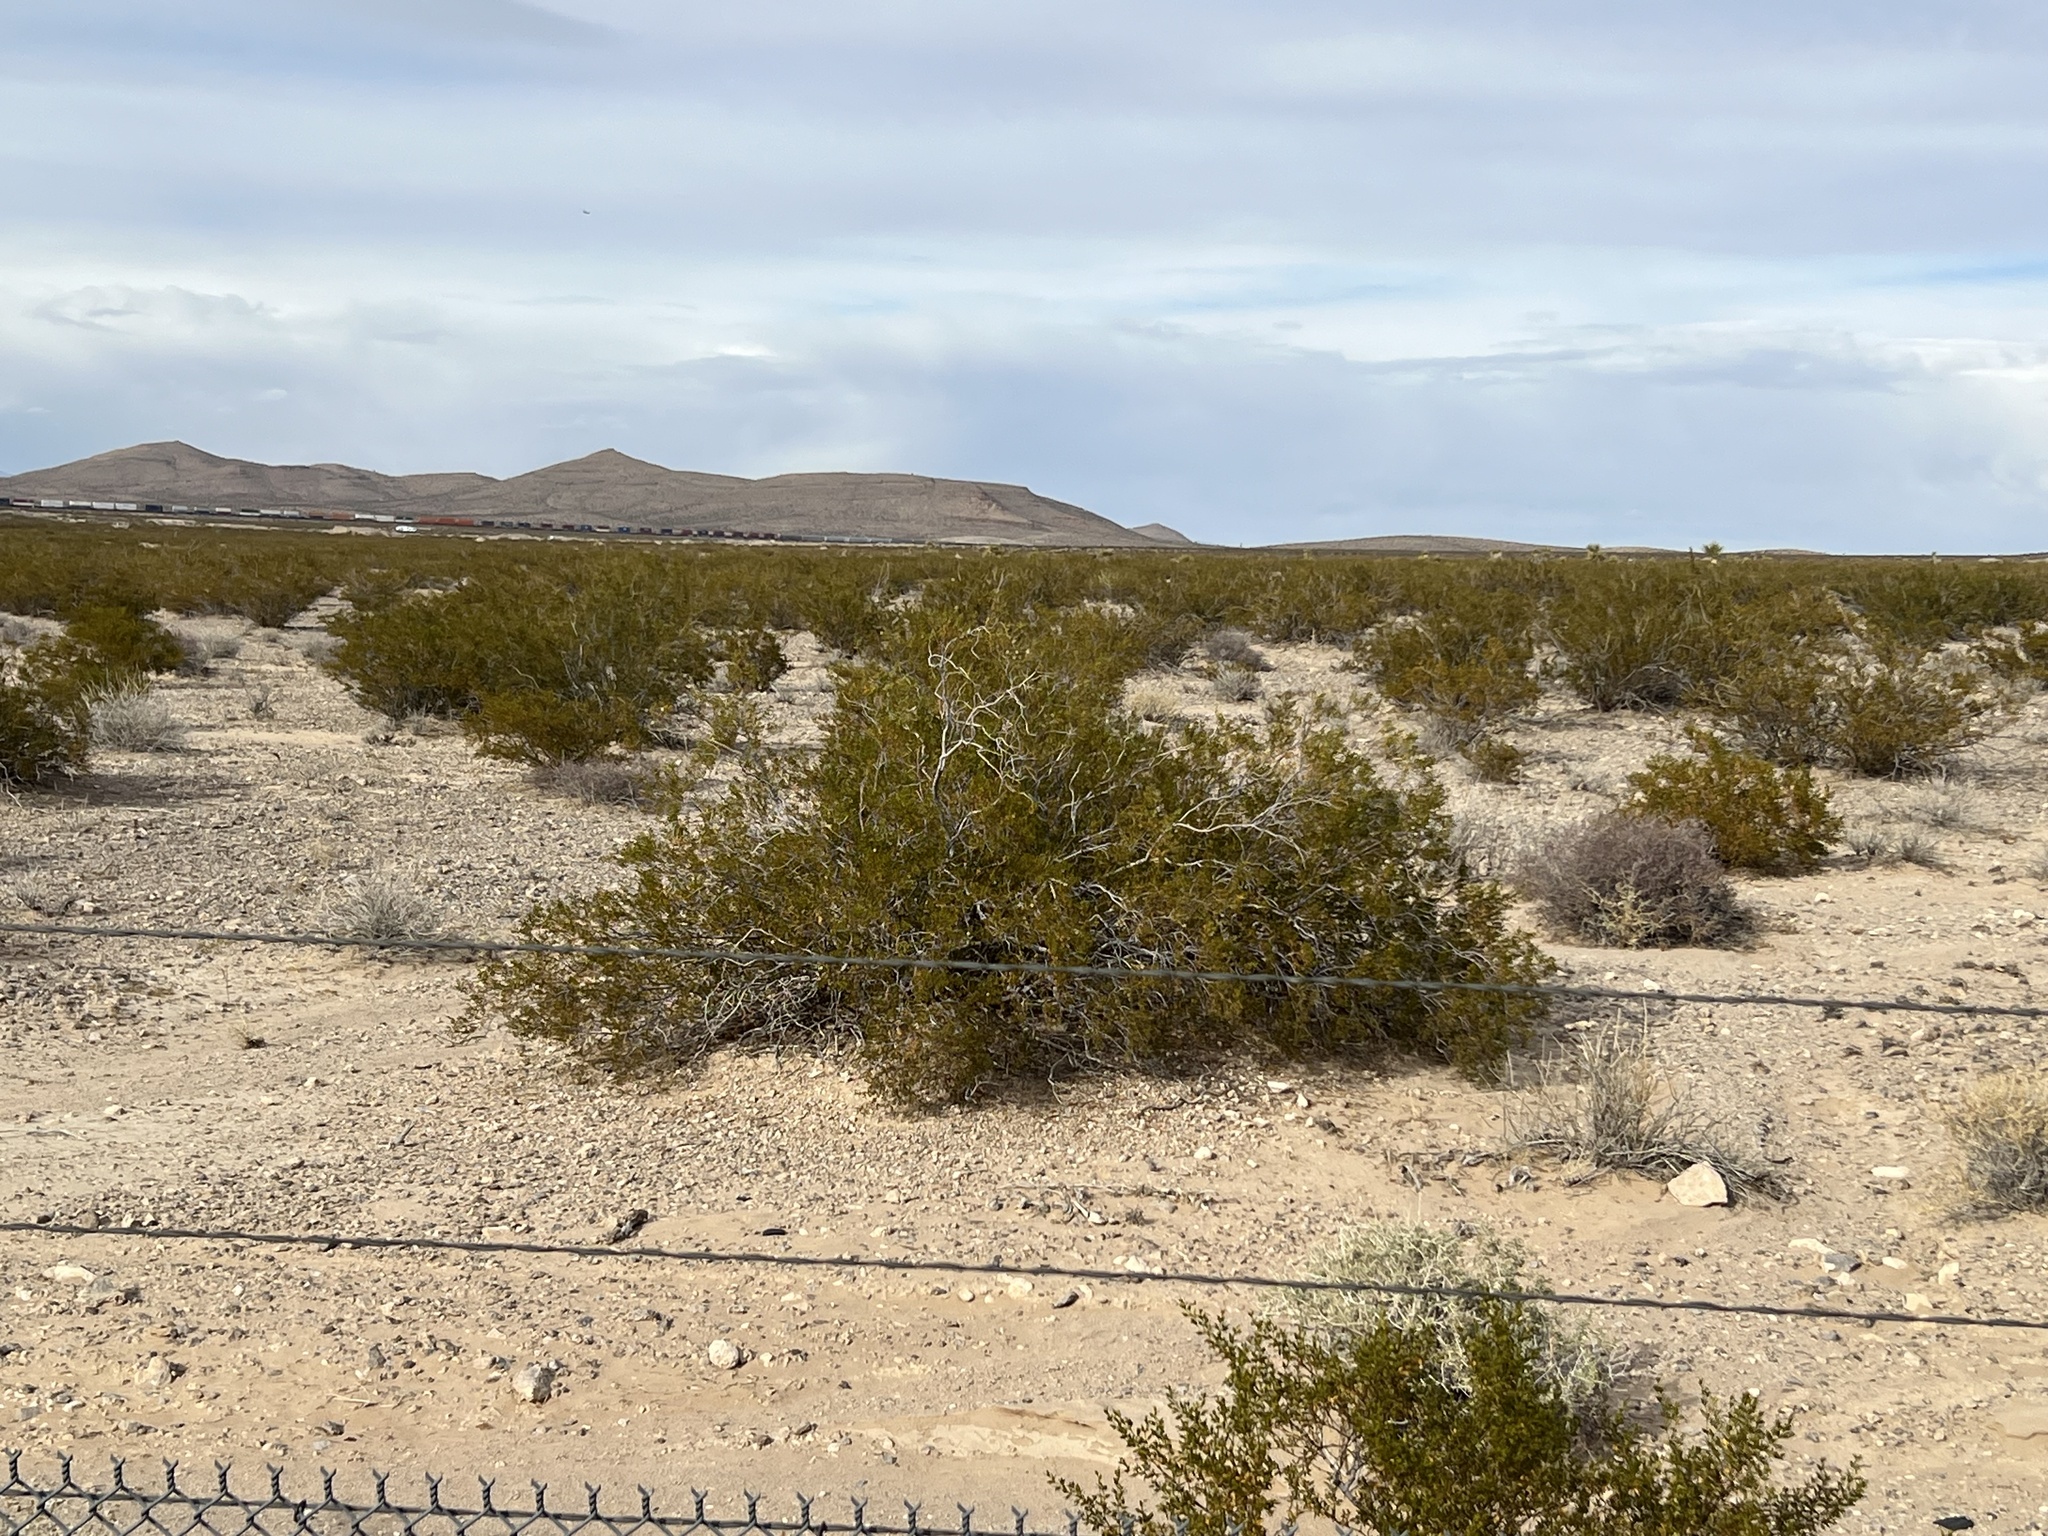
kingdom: Plantae
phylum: Tracheophyta
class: Magnoliopsida
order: Zygophyllales
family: Zygophyllaceae
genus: Larrea
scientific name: Larrea tridentata
